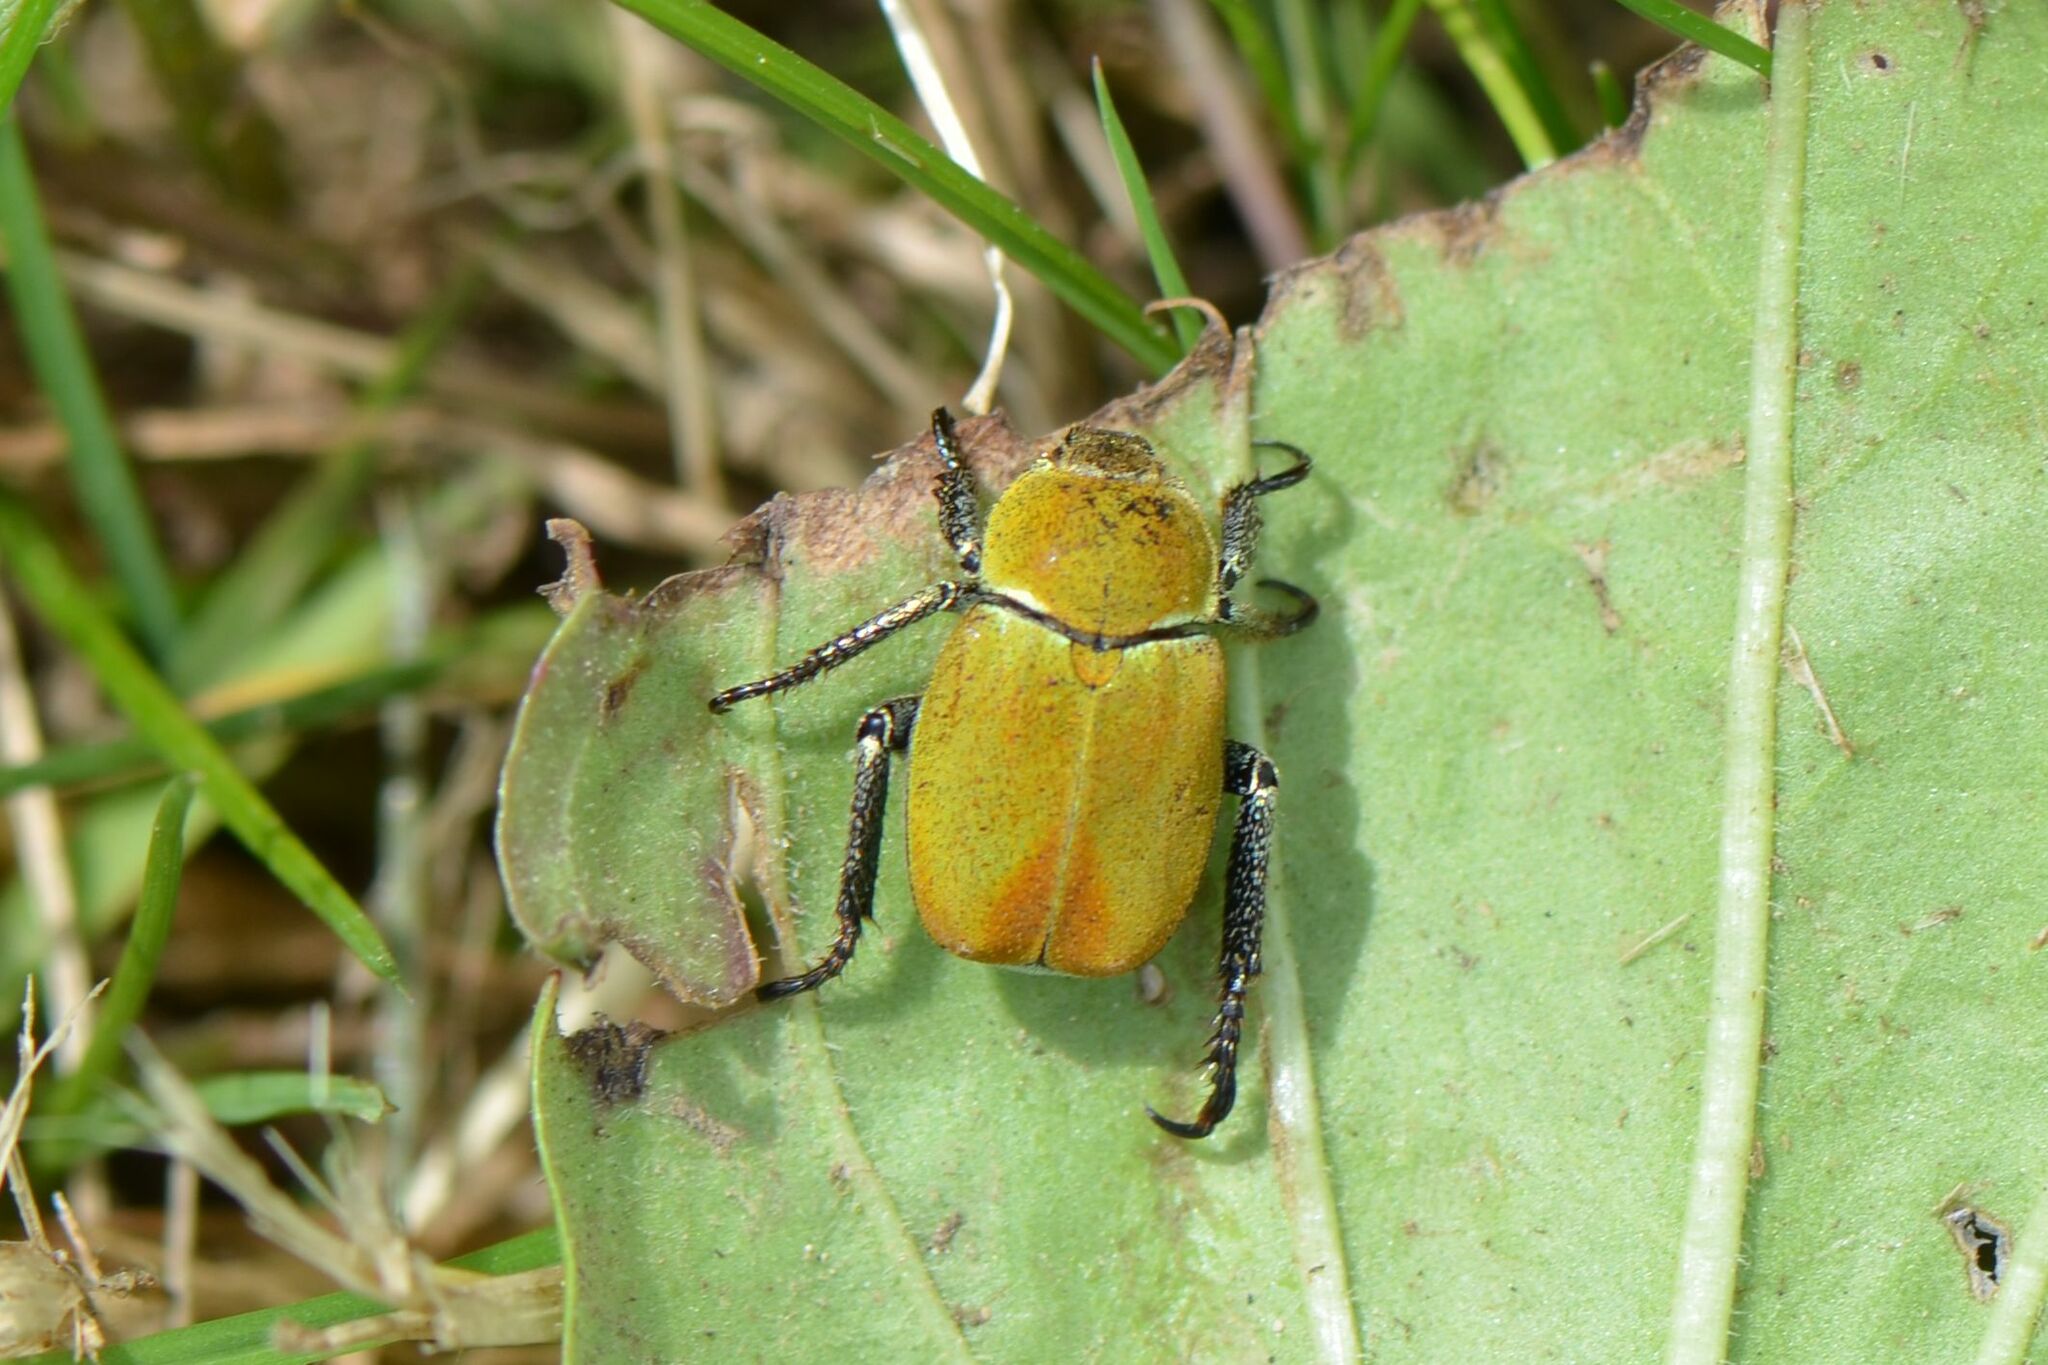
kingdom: Animalia
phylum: Arthropoda
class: Insecta
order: Coleoptera
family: Scarabaeidae
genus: Hoplia
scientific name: Hoplia argentea
